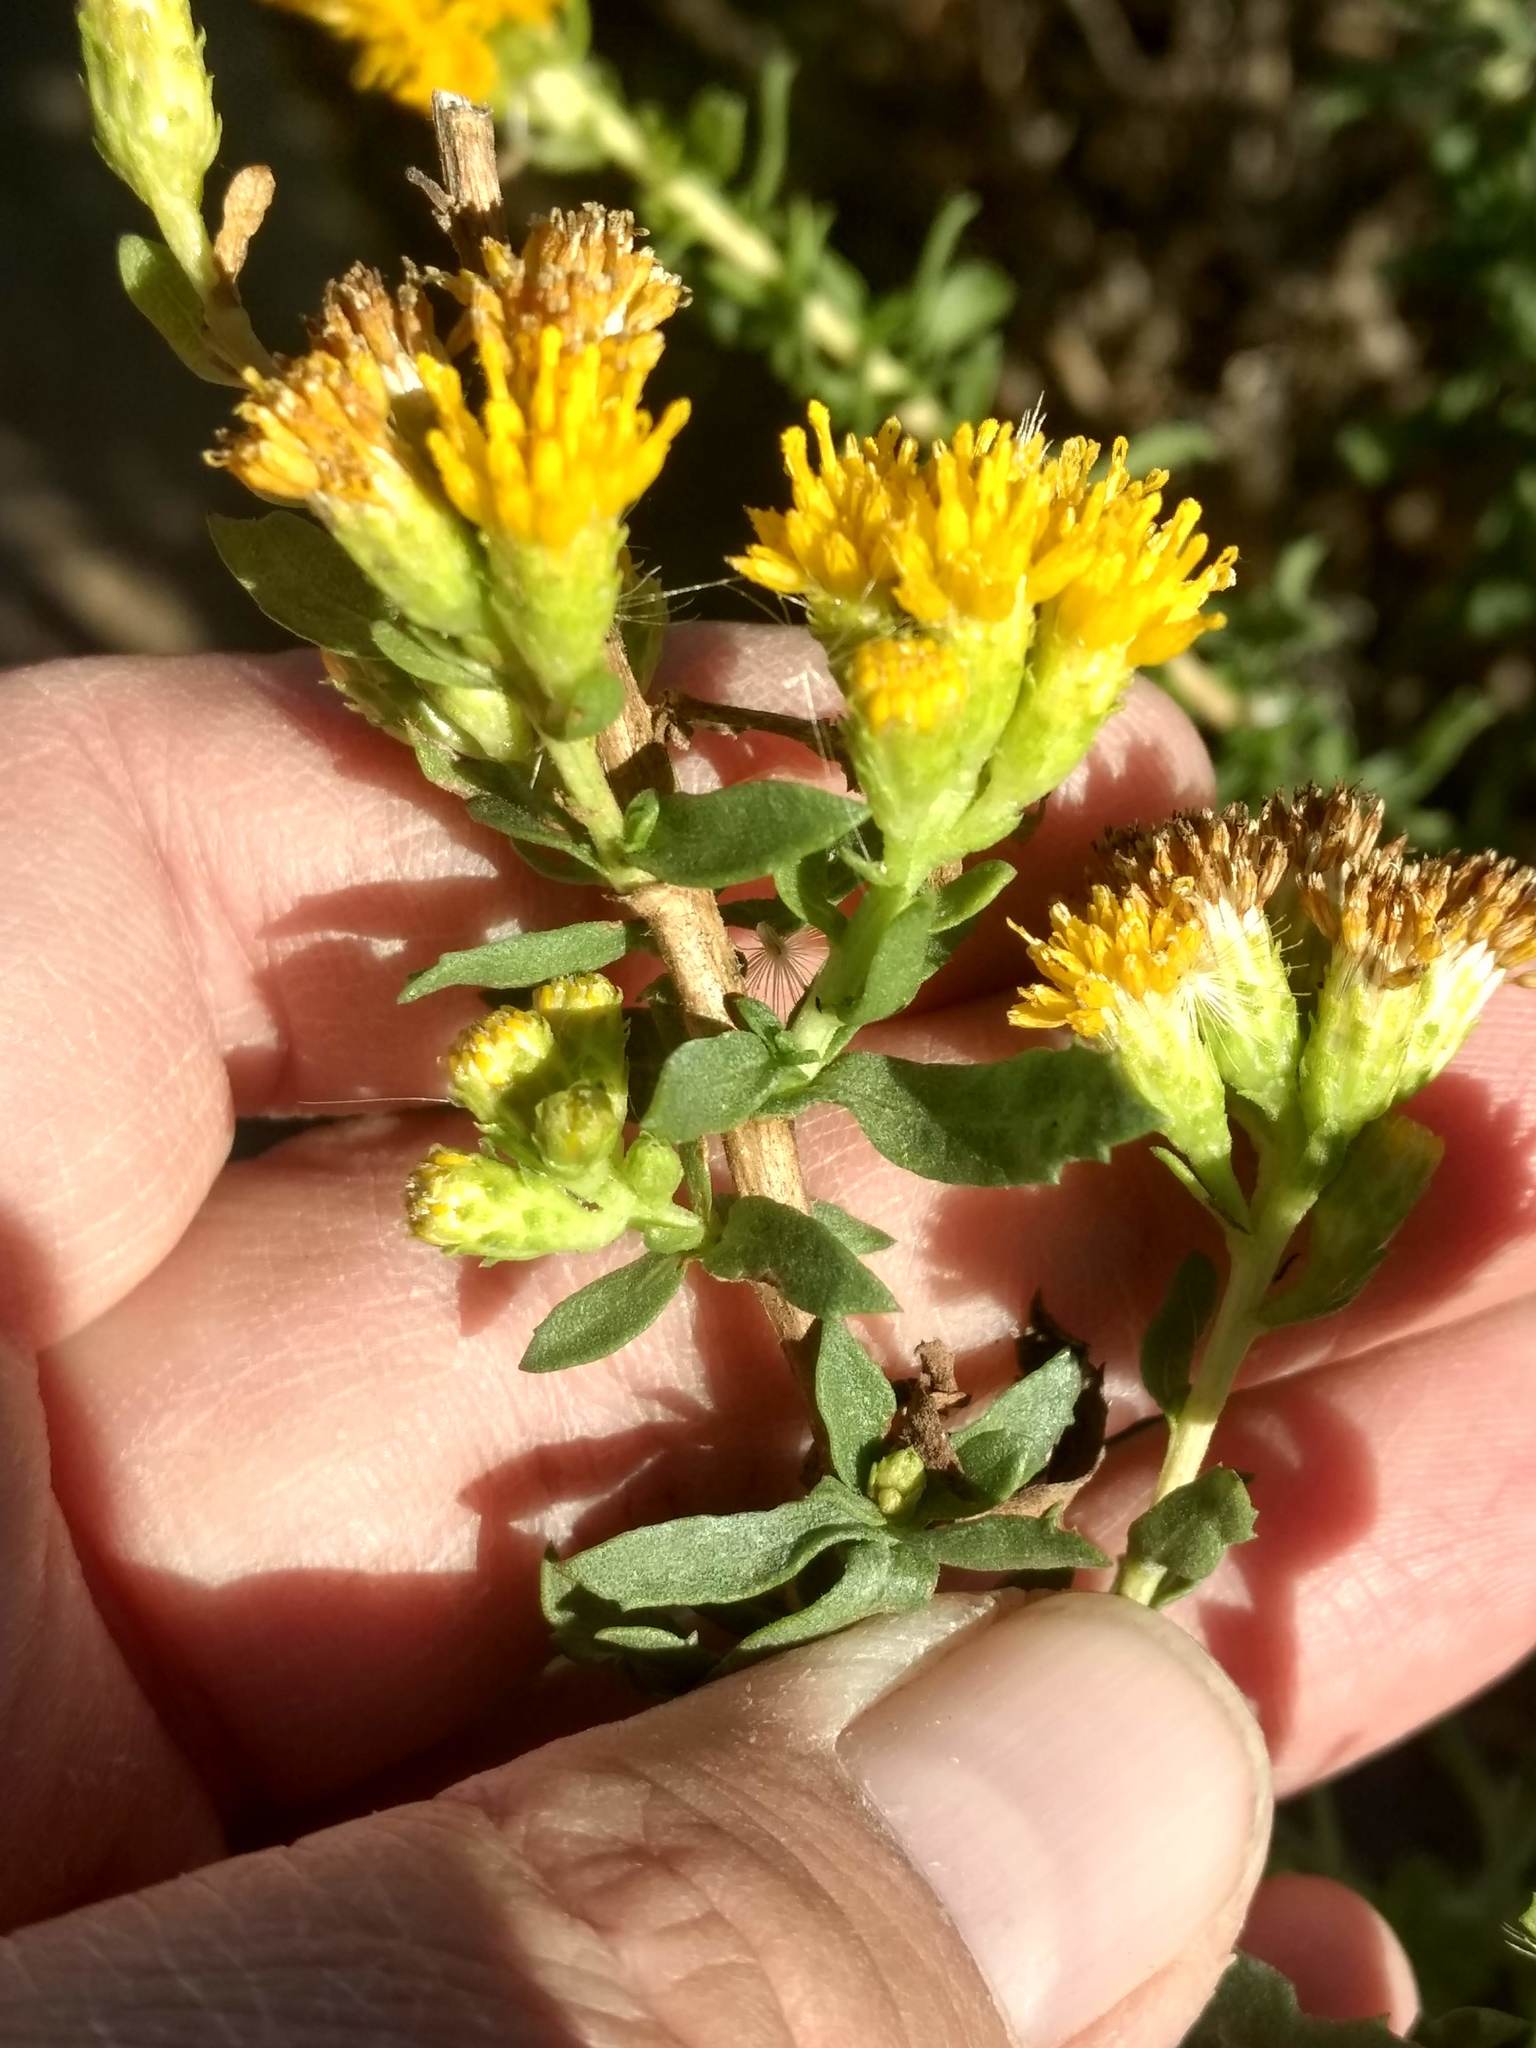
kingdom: Plantae
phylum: Tracheophyta
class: Magnoliopsida
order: Asterales
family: Asteraceae
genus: Isocoma
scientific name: Isocoma menziesii
